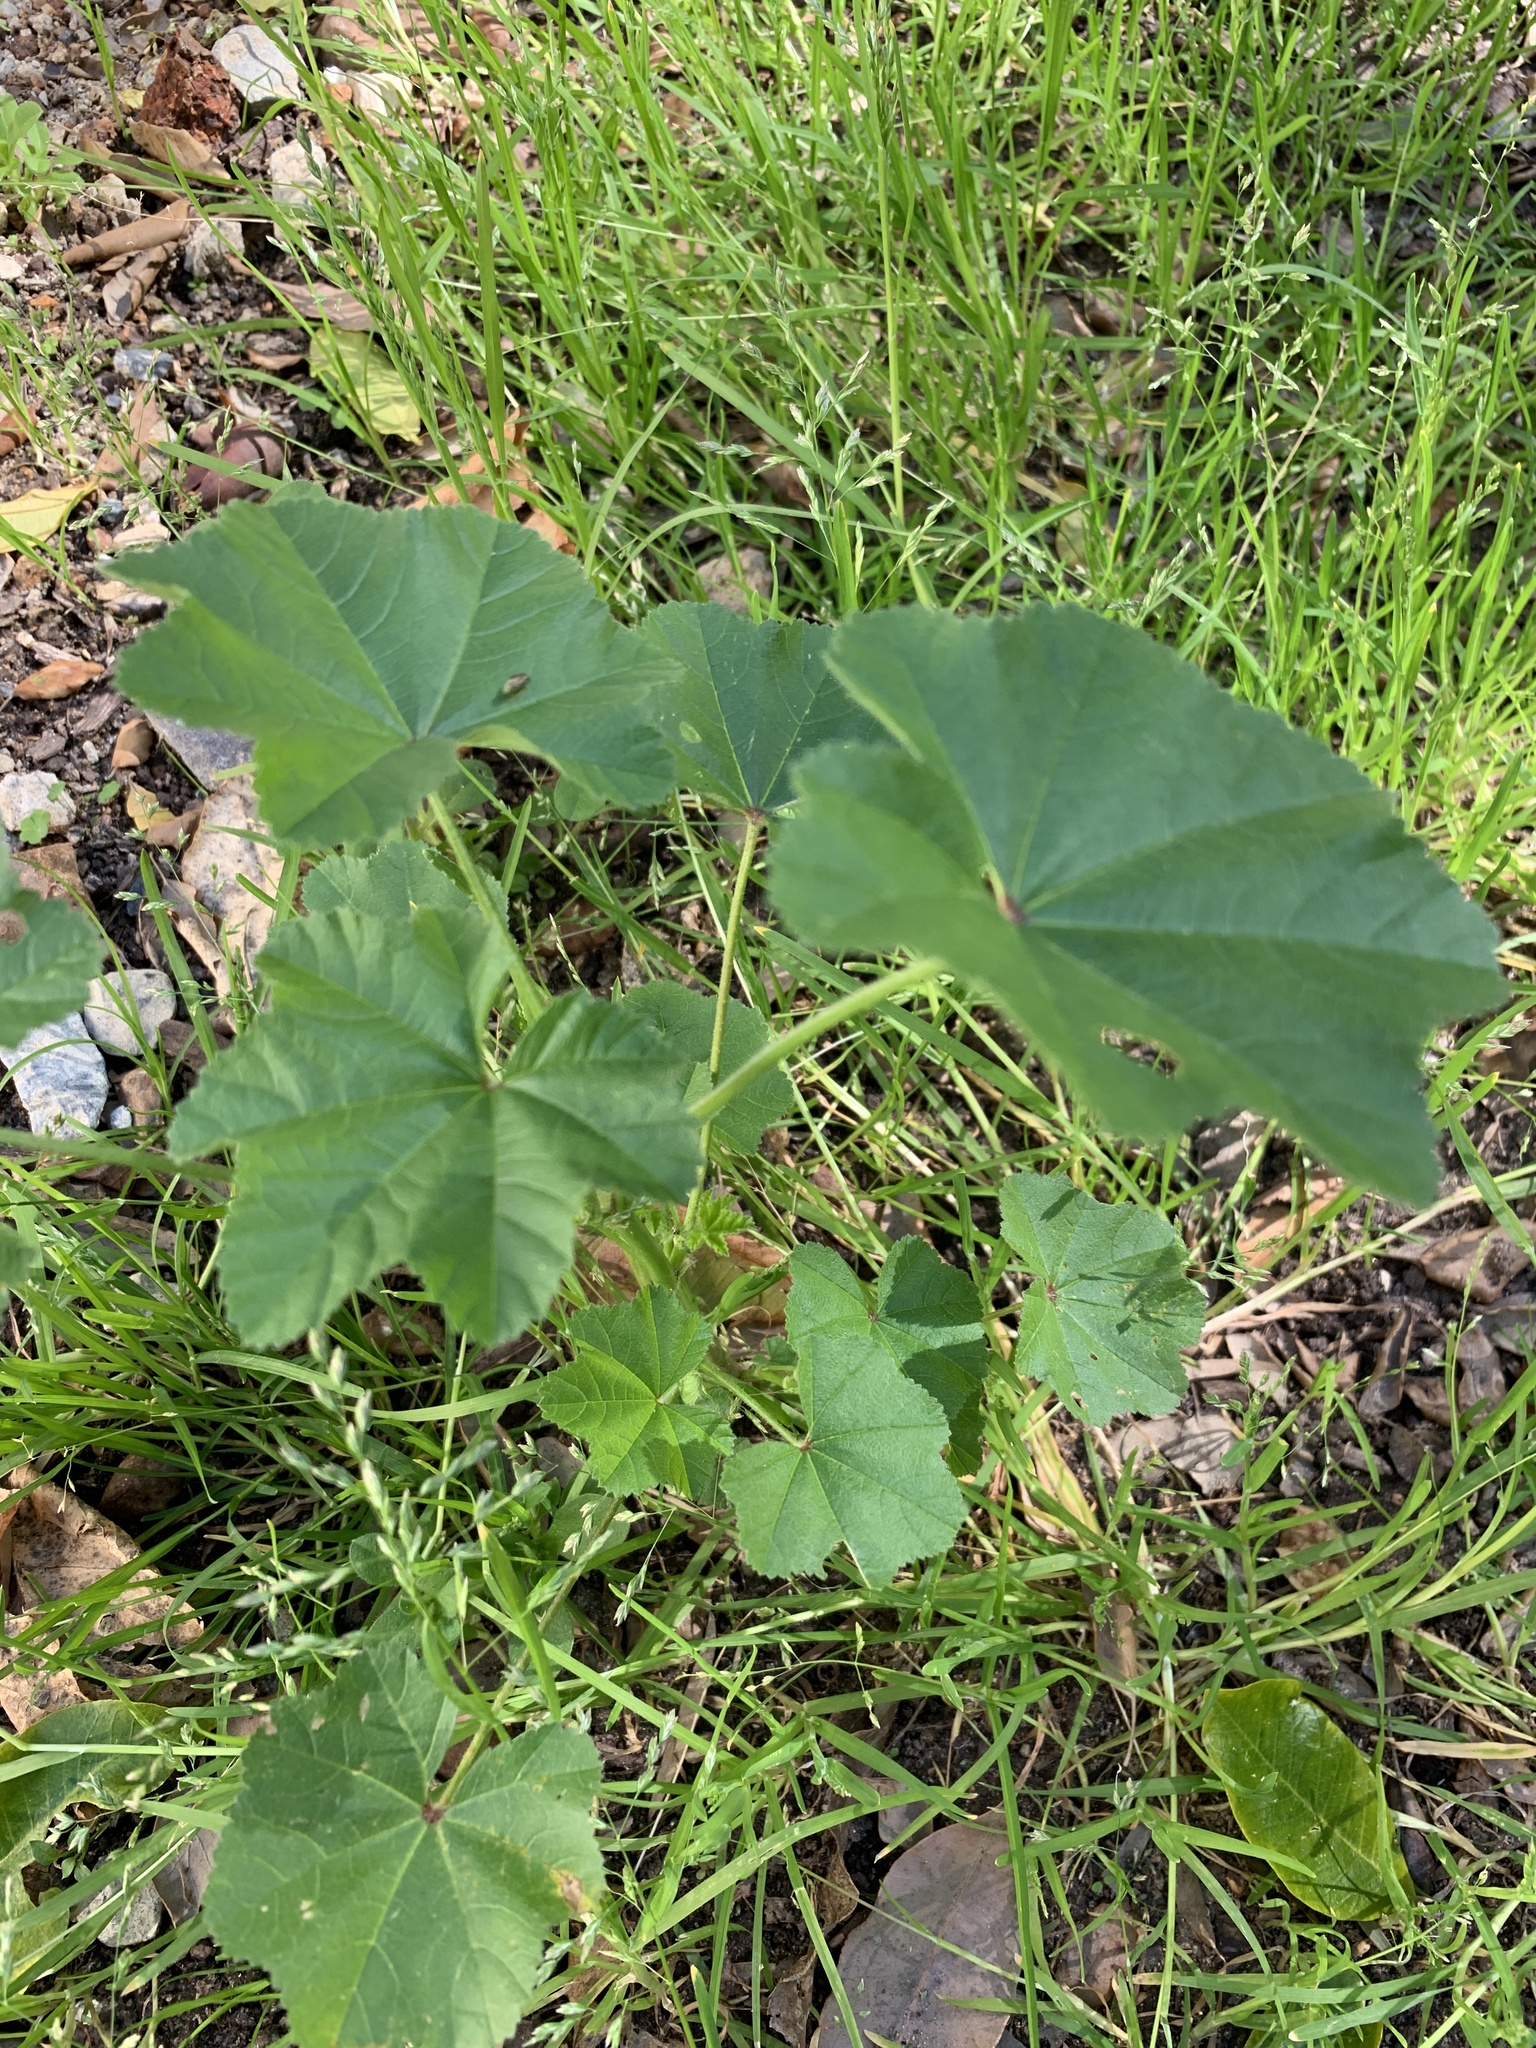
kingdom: Plantae
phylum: Tracheophyta
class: Magnoliopsida
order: Malvales
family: Malvaceae
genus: Malva
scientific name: Malva parviflora
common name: Least mallow
